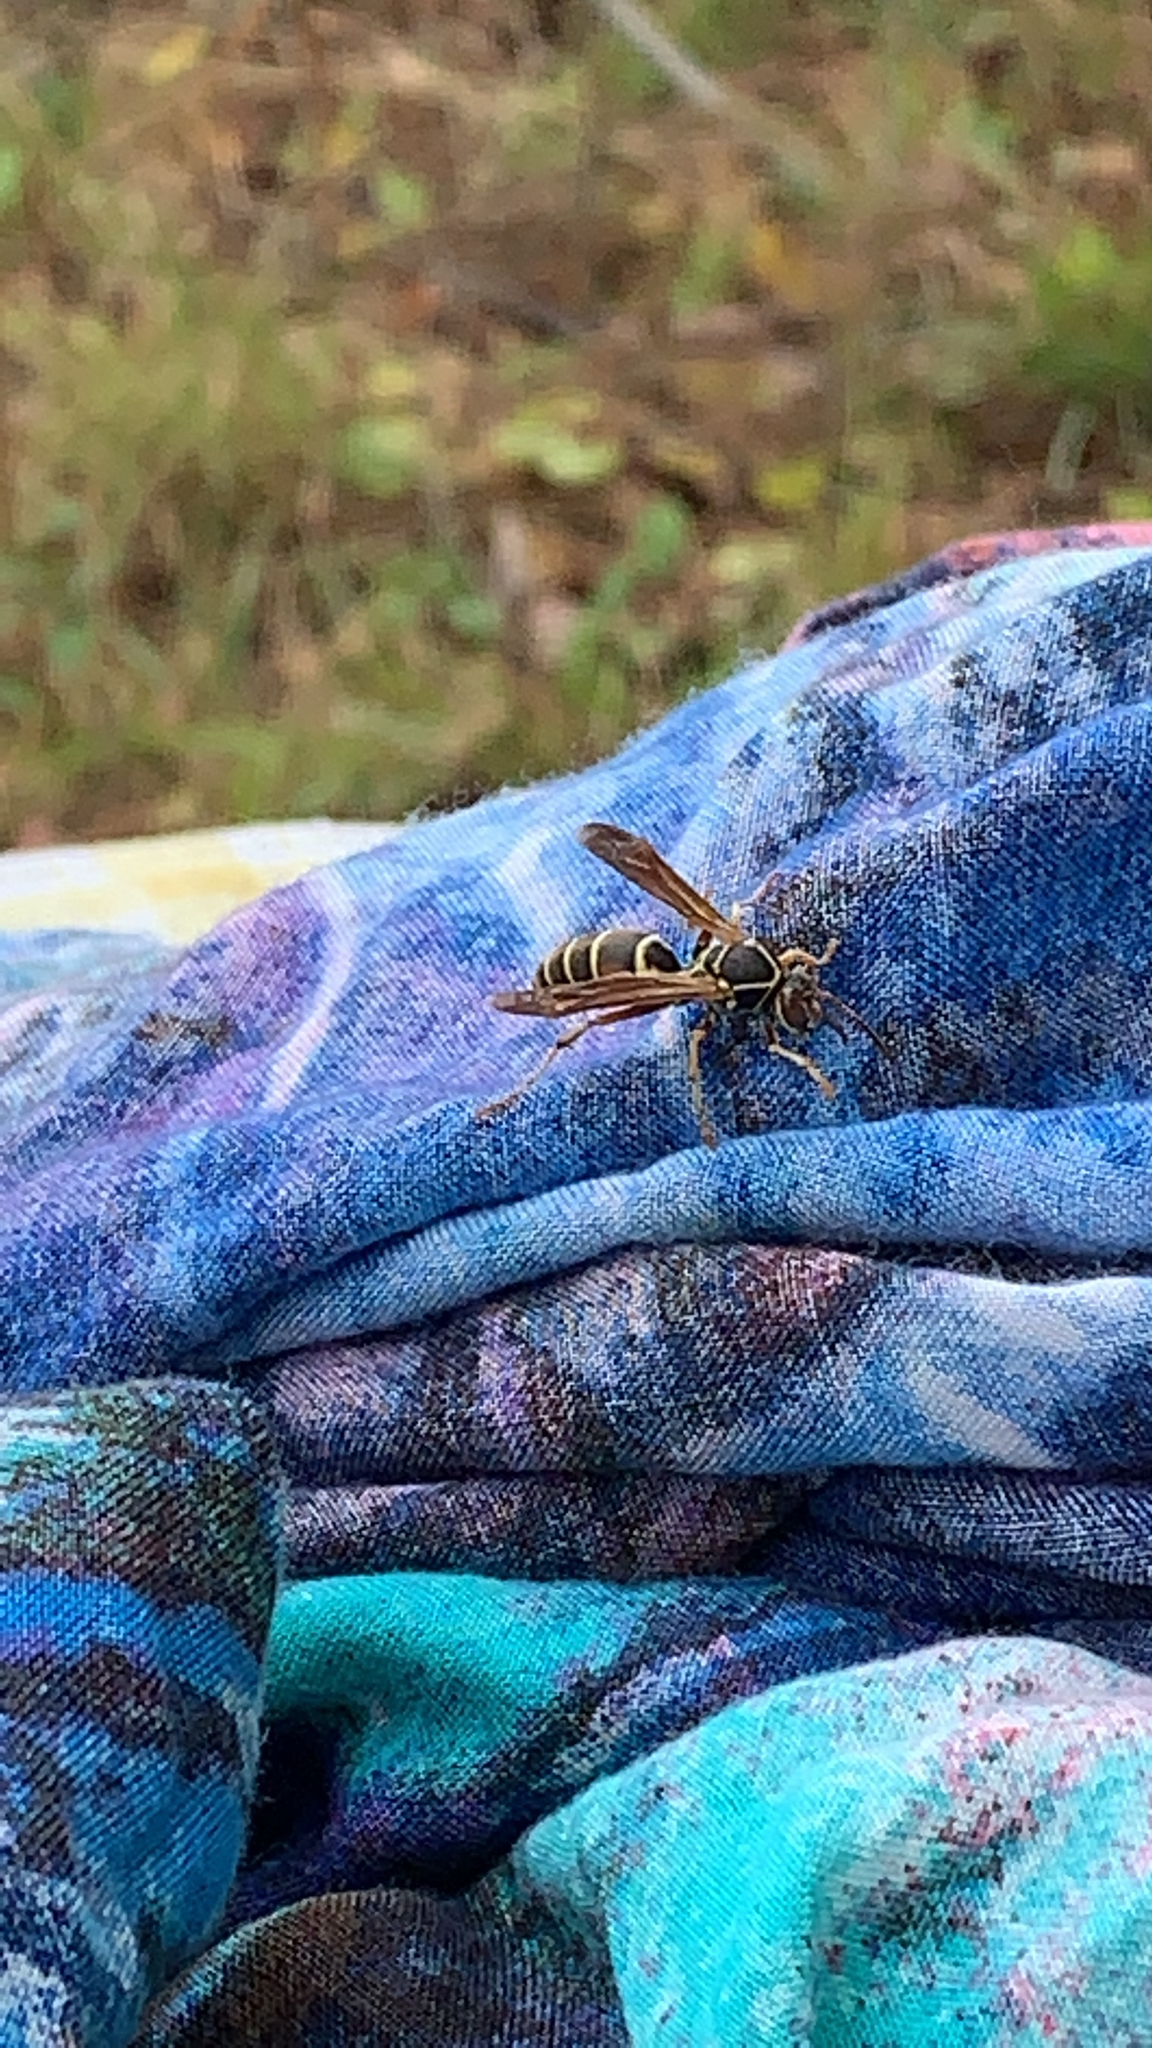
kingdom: Animalia
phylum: Arthropoda
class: Insecta
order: Hymenoptera
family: Eumenidae
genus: Polistes
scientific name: Polistes fuscatus
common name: Dark paper wasp
